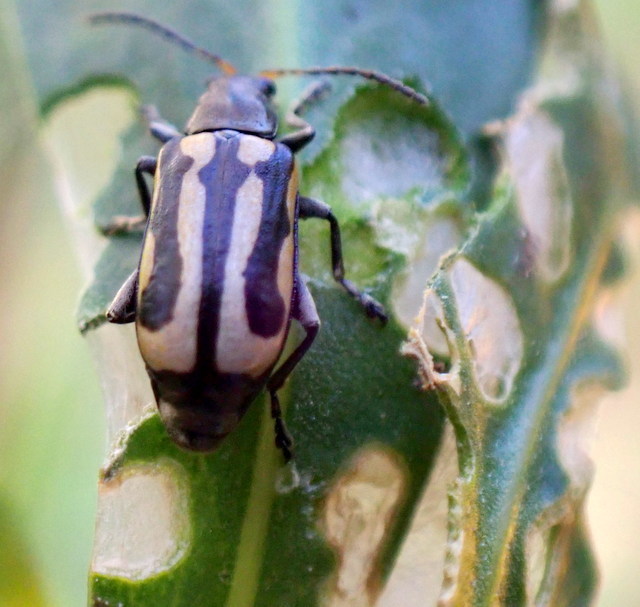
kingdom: Animalia
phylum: Arthropoda
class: Insecta
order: Coleoptera
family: Chrysomelidae
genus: Agasicles
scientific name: Agasicles hygrophila
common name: Alligatorweed flea beetle
